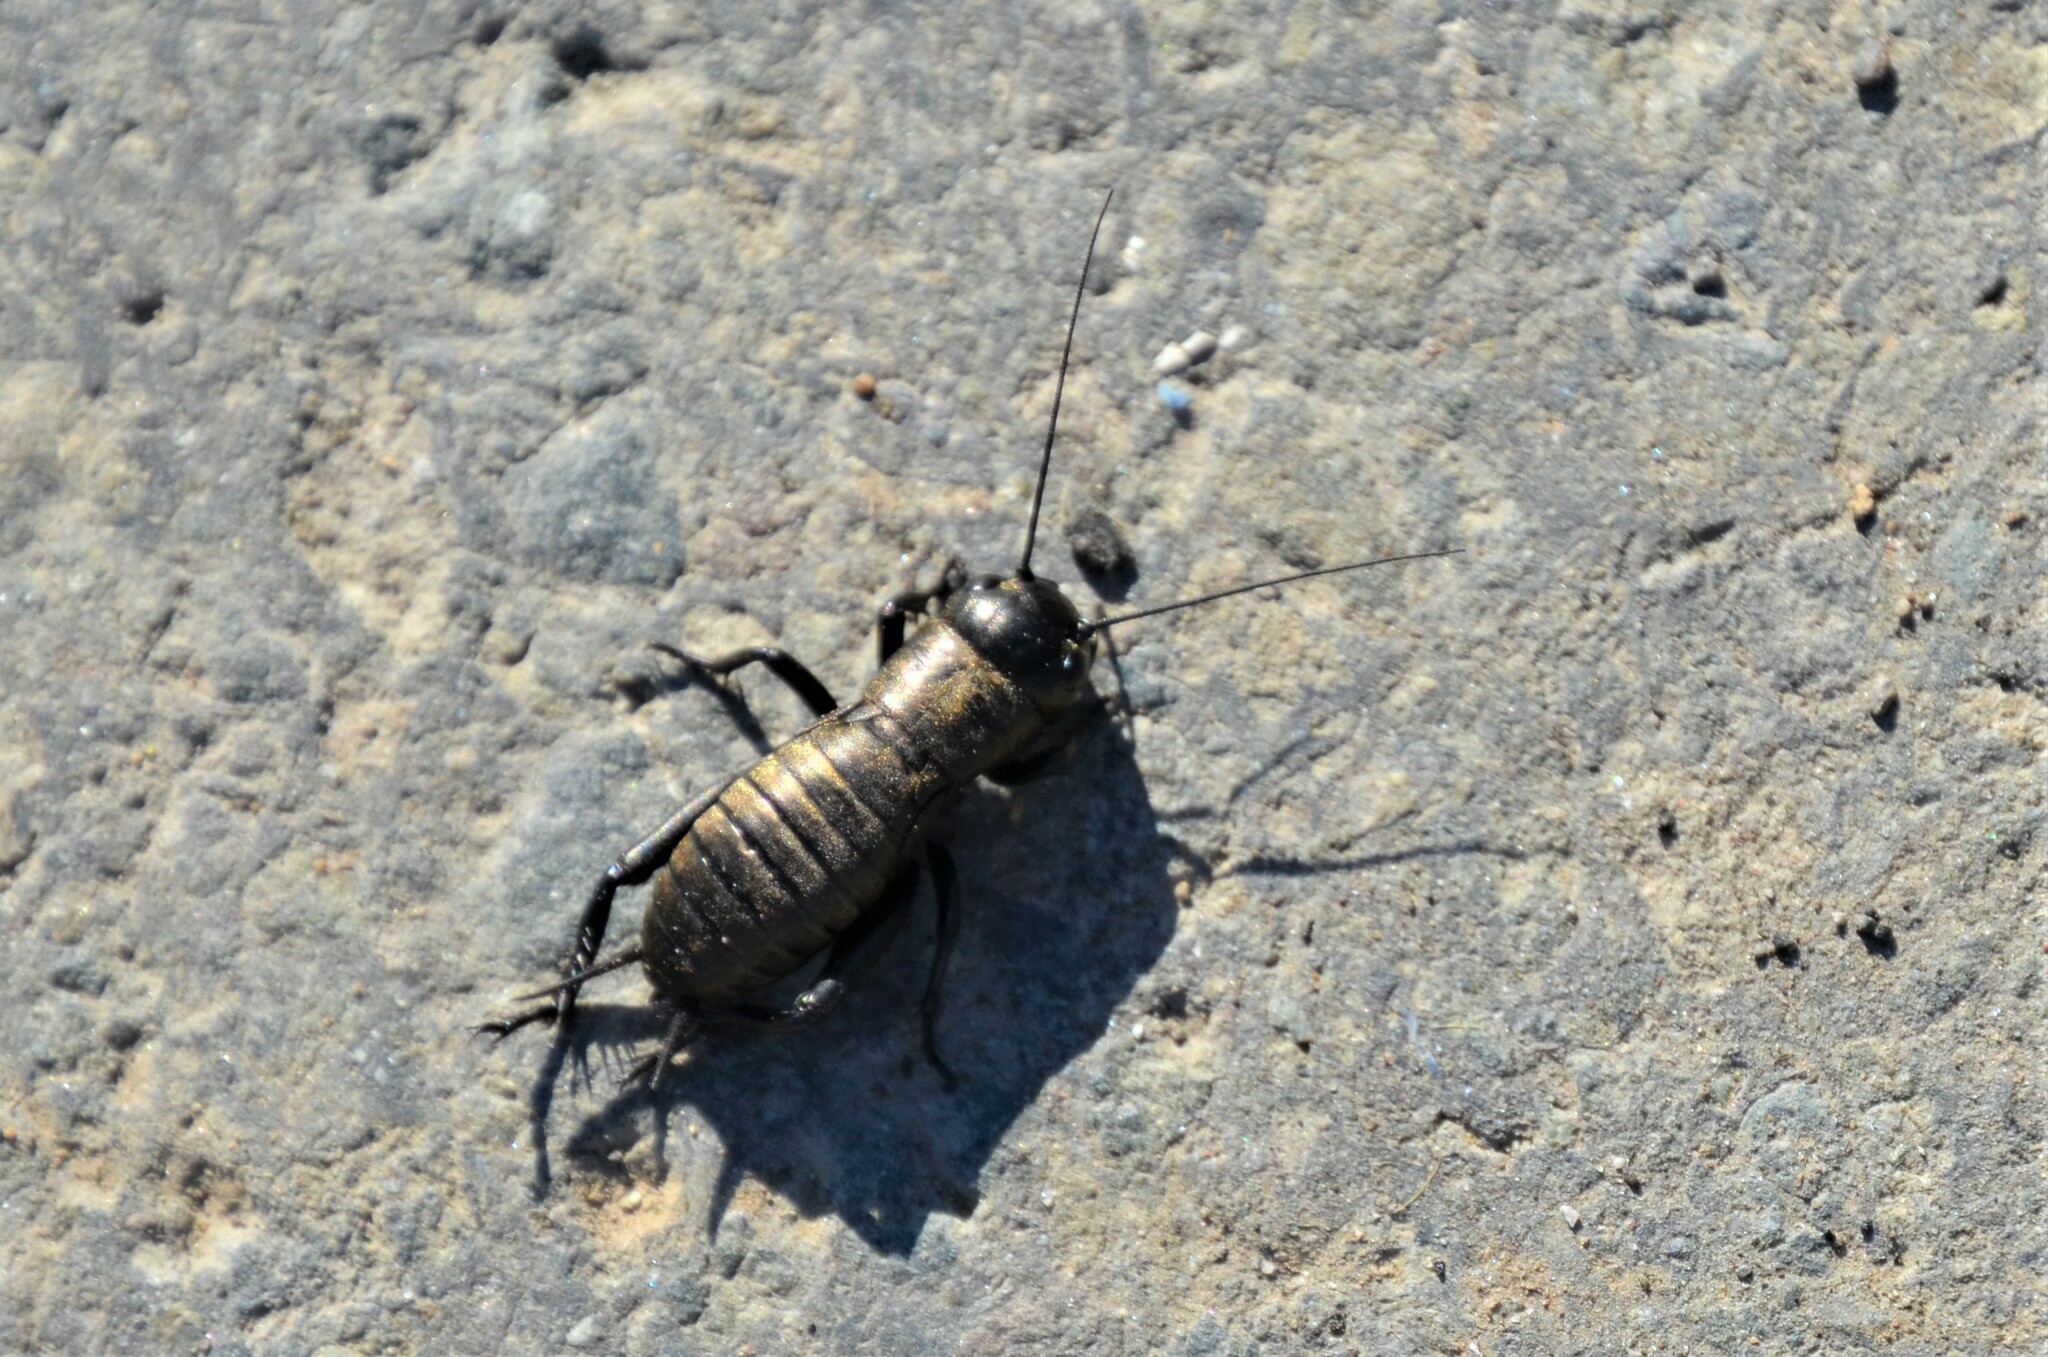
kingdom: Animalia
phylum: Arthropoda
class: Insecta
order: Orthoptera
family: Gryllidae
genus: Gryllus
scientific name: Gryllus campestris
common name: Field cricket
